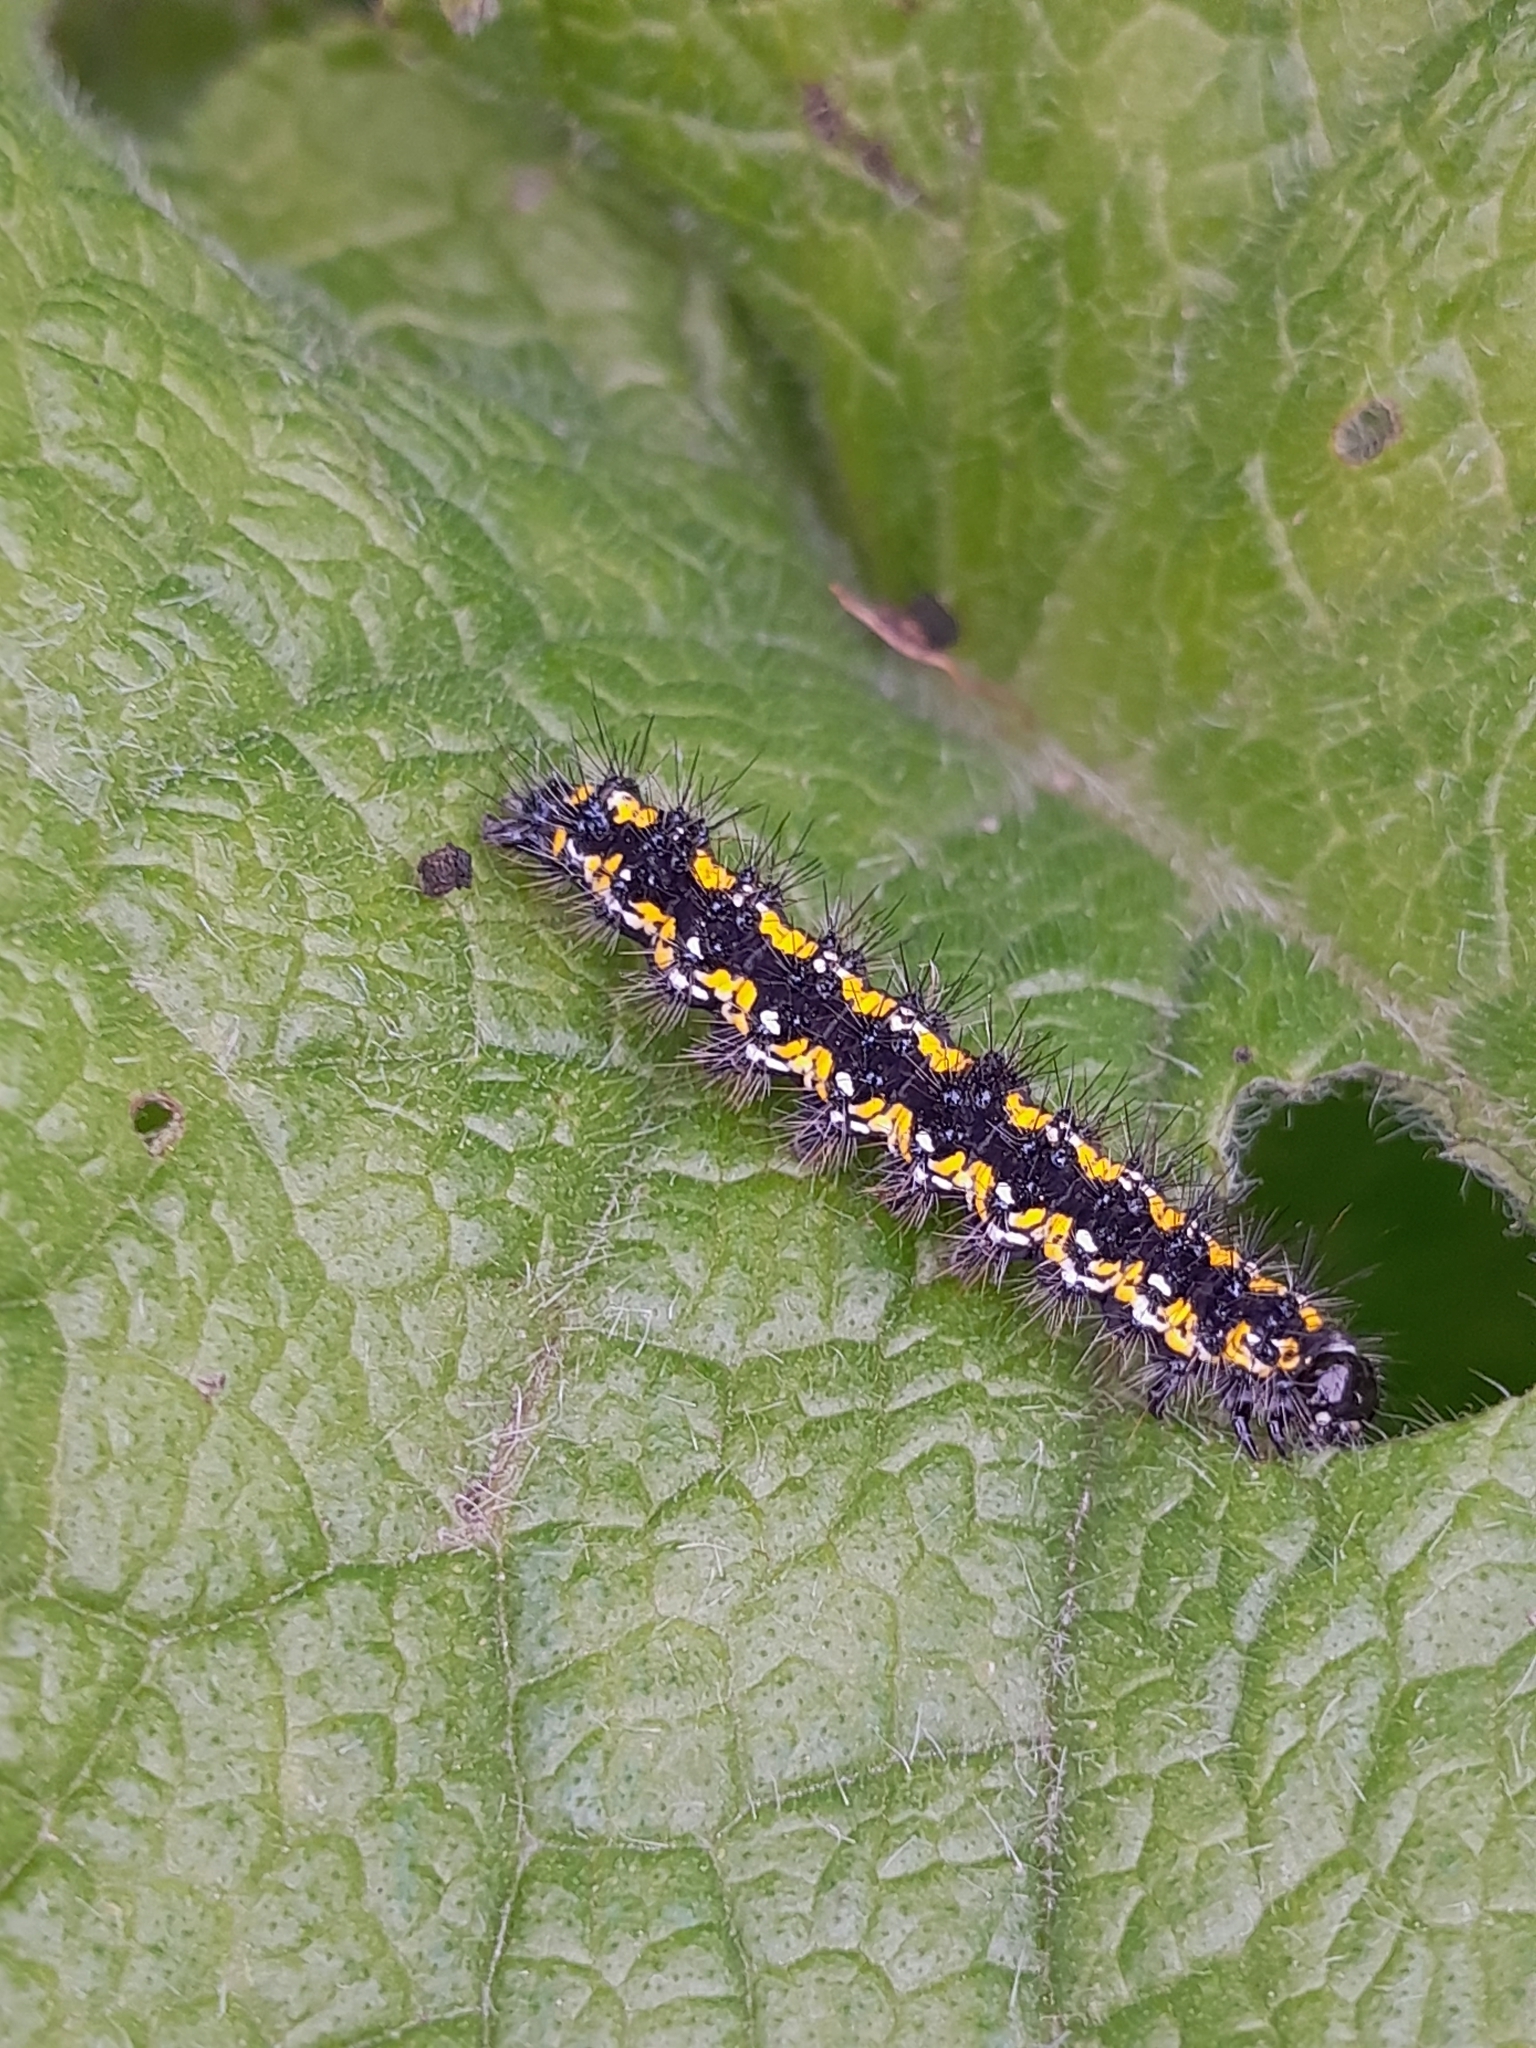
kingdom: Animalia
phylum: Arthropoda
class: Insecta
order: Lepidoptera
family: Erebidae
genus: Callimorpha
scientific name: Callimorpha dominula
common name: Scarlet tiger
